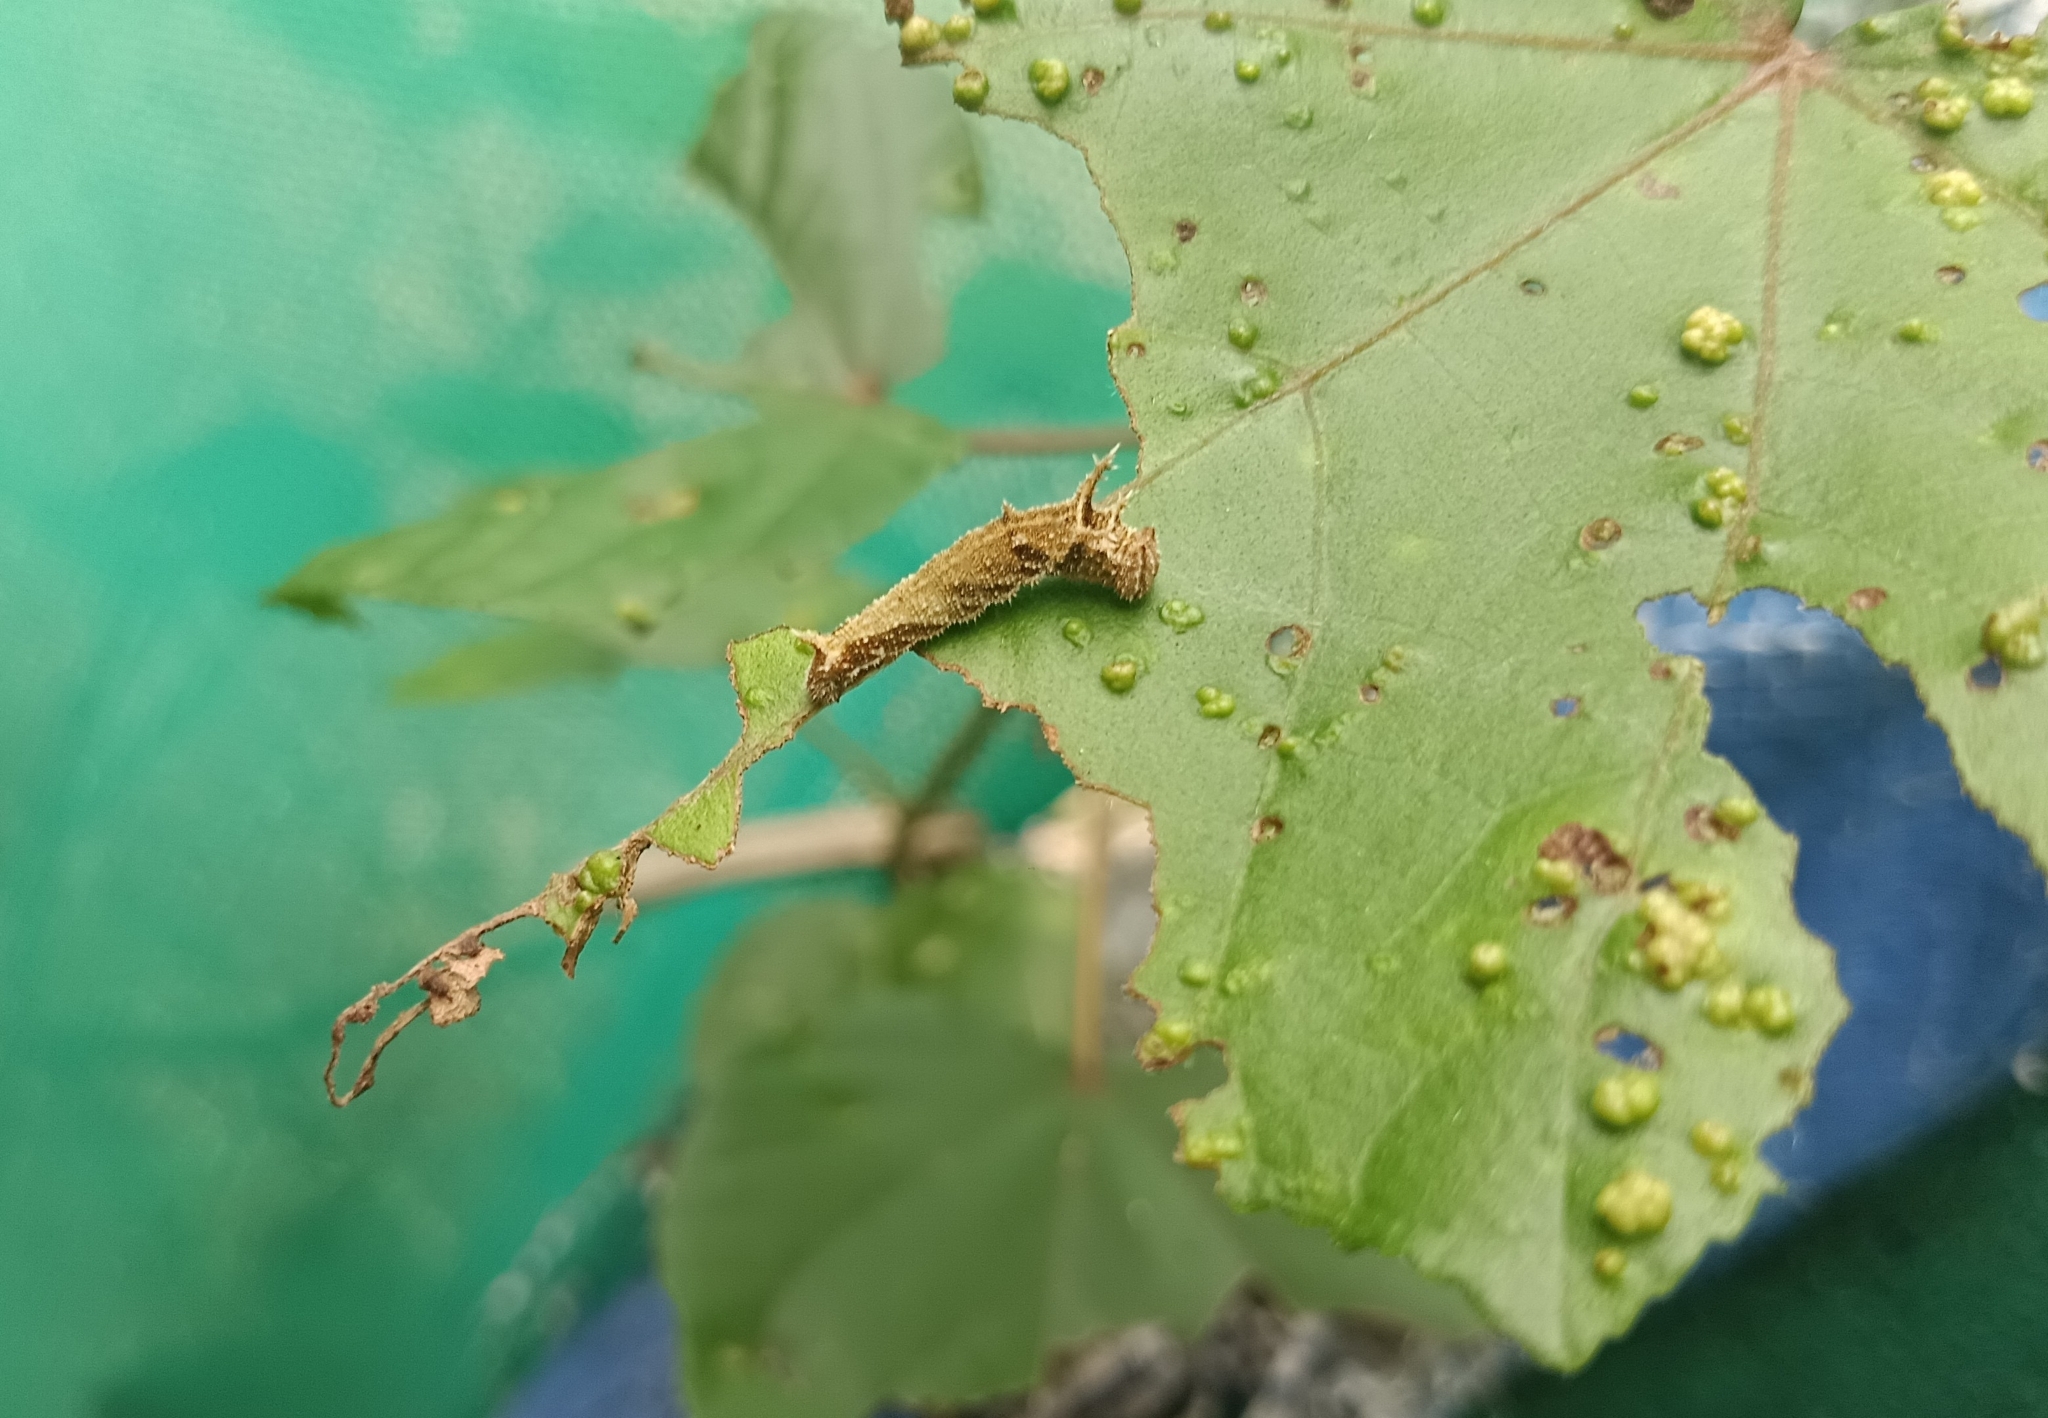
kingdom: Animalia
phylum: Arthropoda
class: Insecta
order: Lepidoptera
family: Nymphalidae
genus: Neptis
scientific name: Neptis jumbah
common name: Chestnut-streaked sailer
